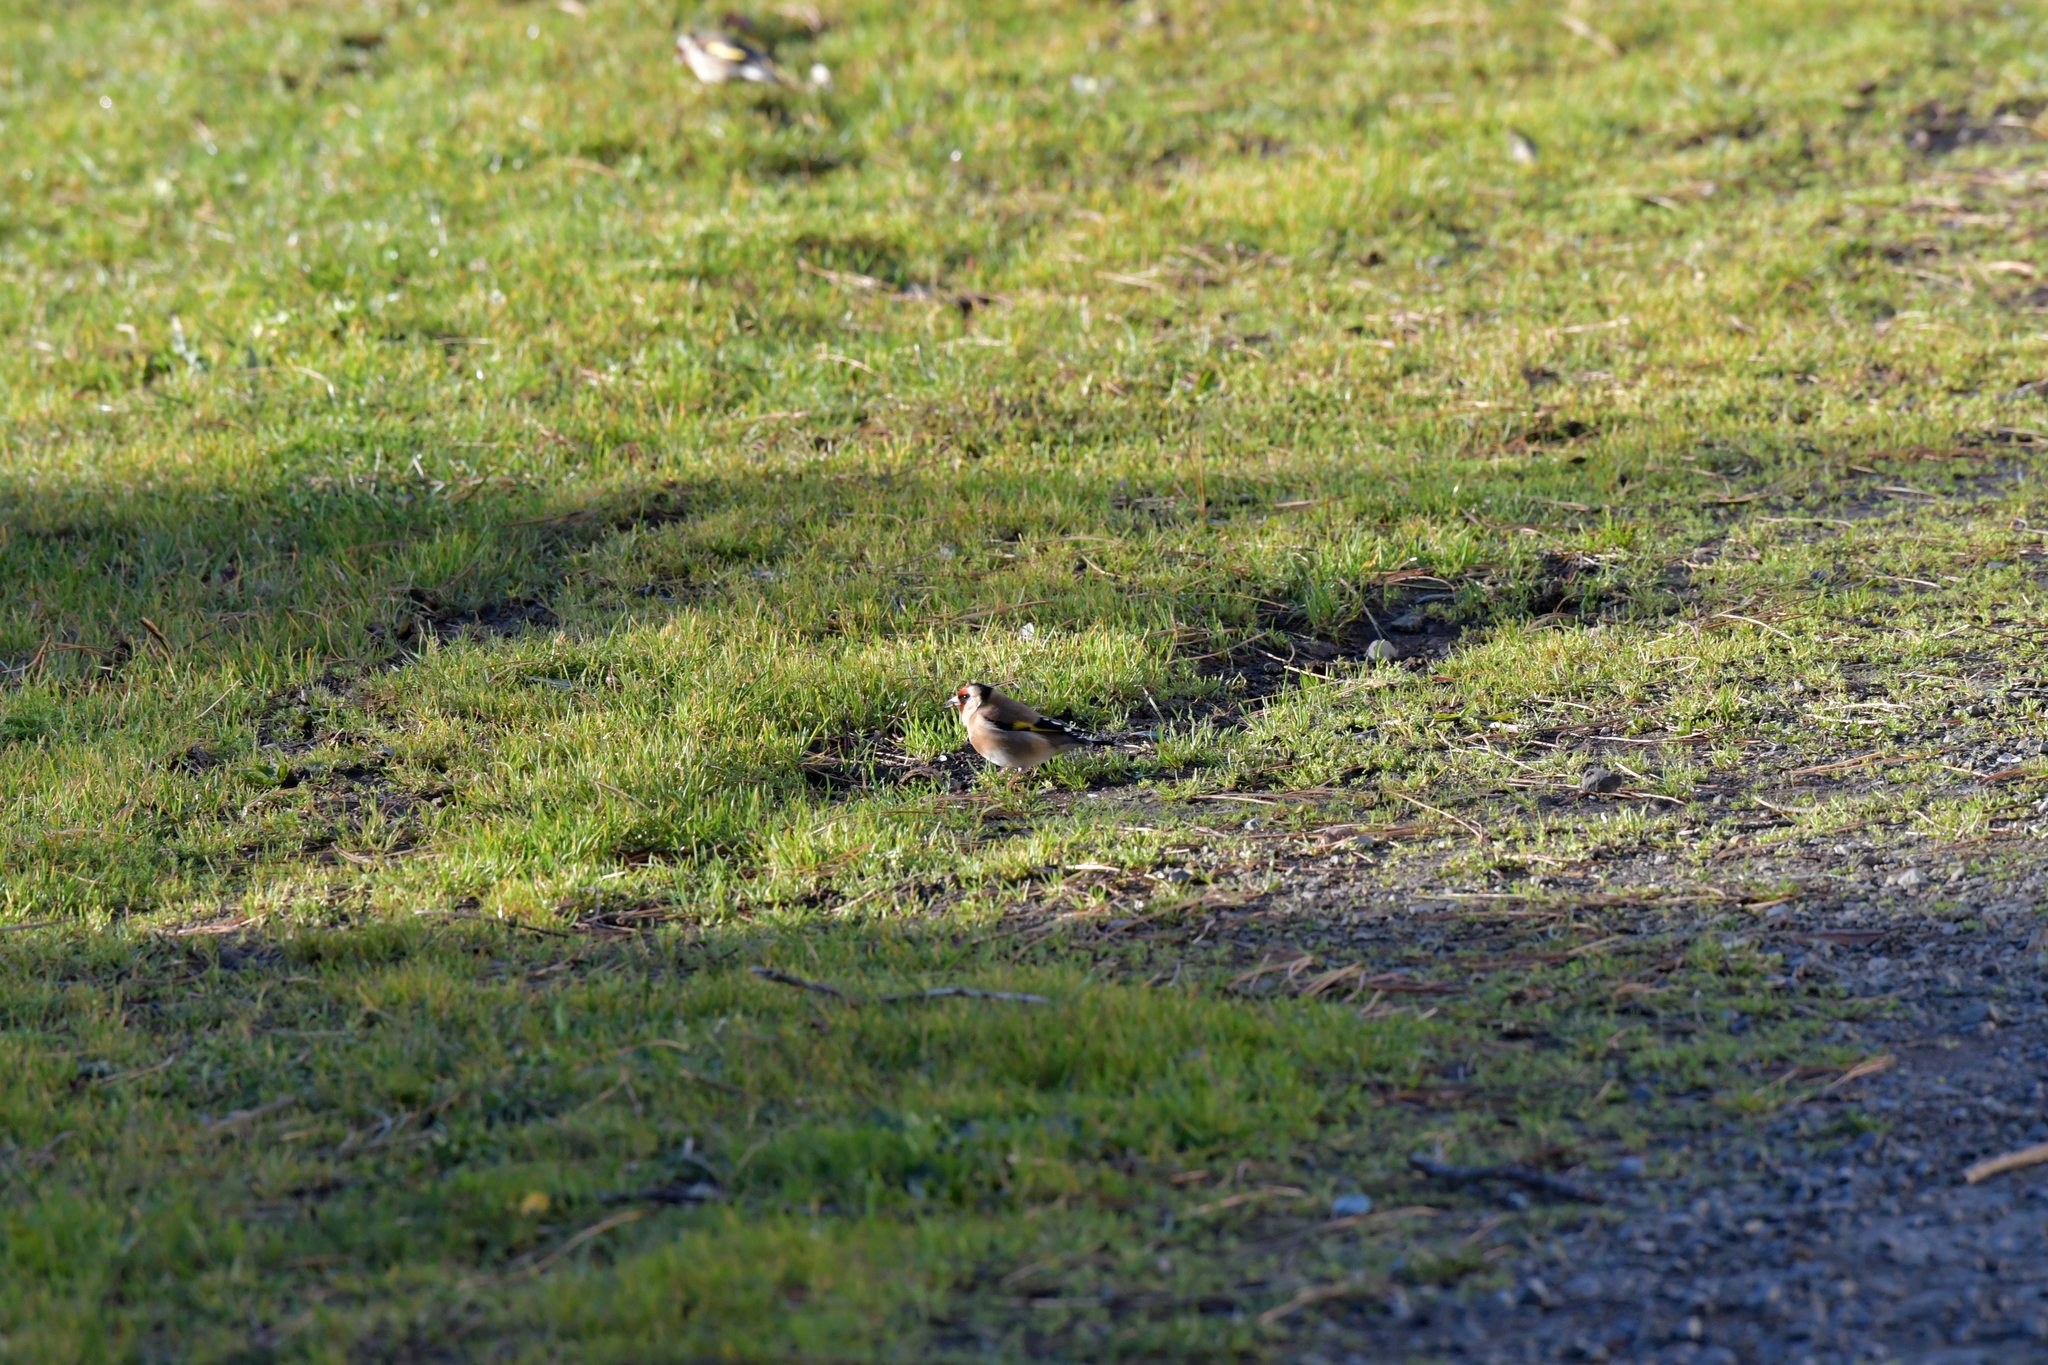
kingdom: Animalia
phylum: Chordata
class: Aves
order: Passeriformes
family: Fringillidae
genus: Carduelis
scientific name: Carduelis carduelis
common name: European goldfinch
